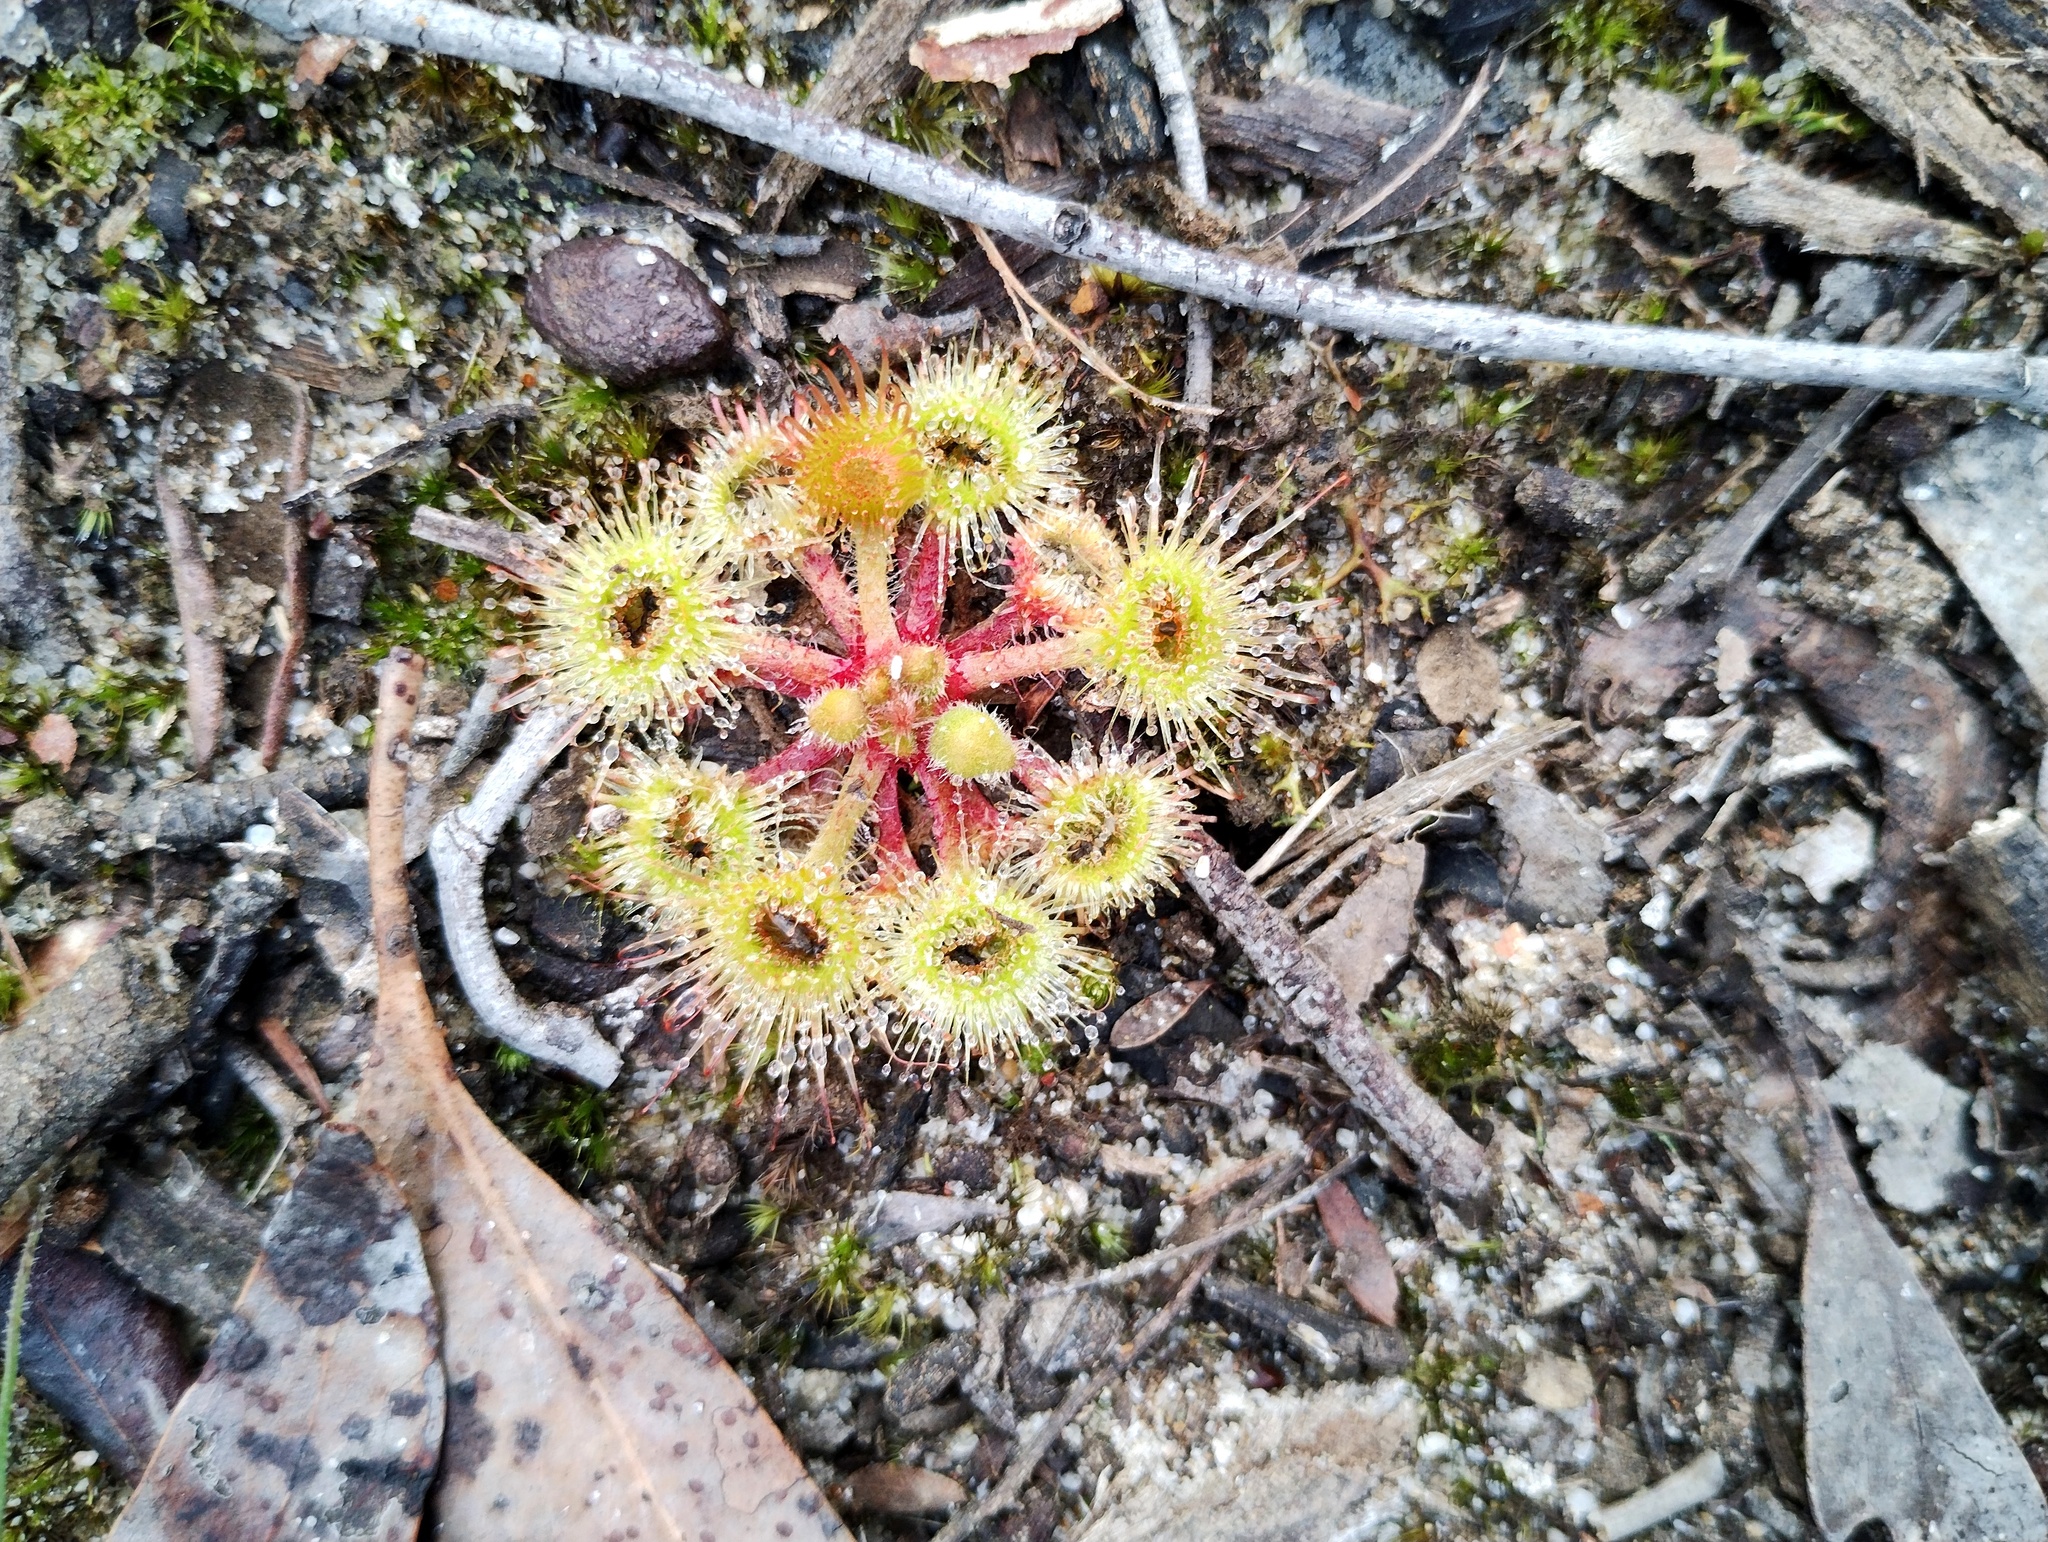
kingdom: Plantae
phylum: Tracheophyta
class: Magnoliopsida
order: Caryophyllales
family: Droseraceae
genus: Drosera
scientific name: Drosera glanduligera
